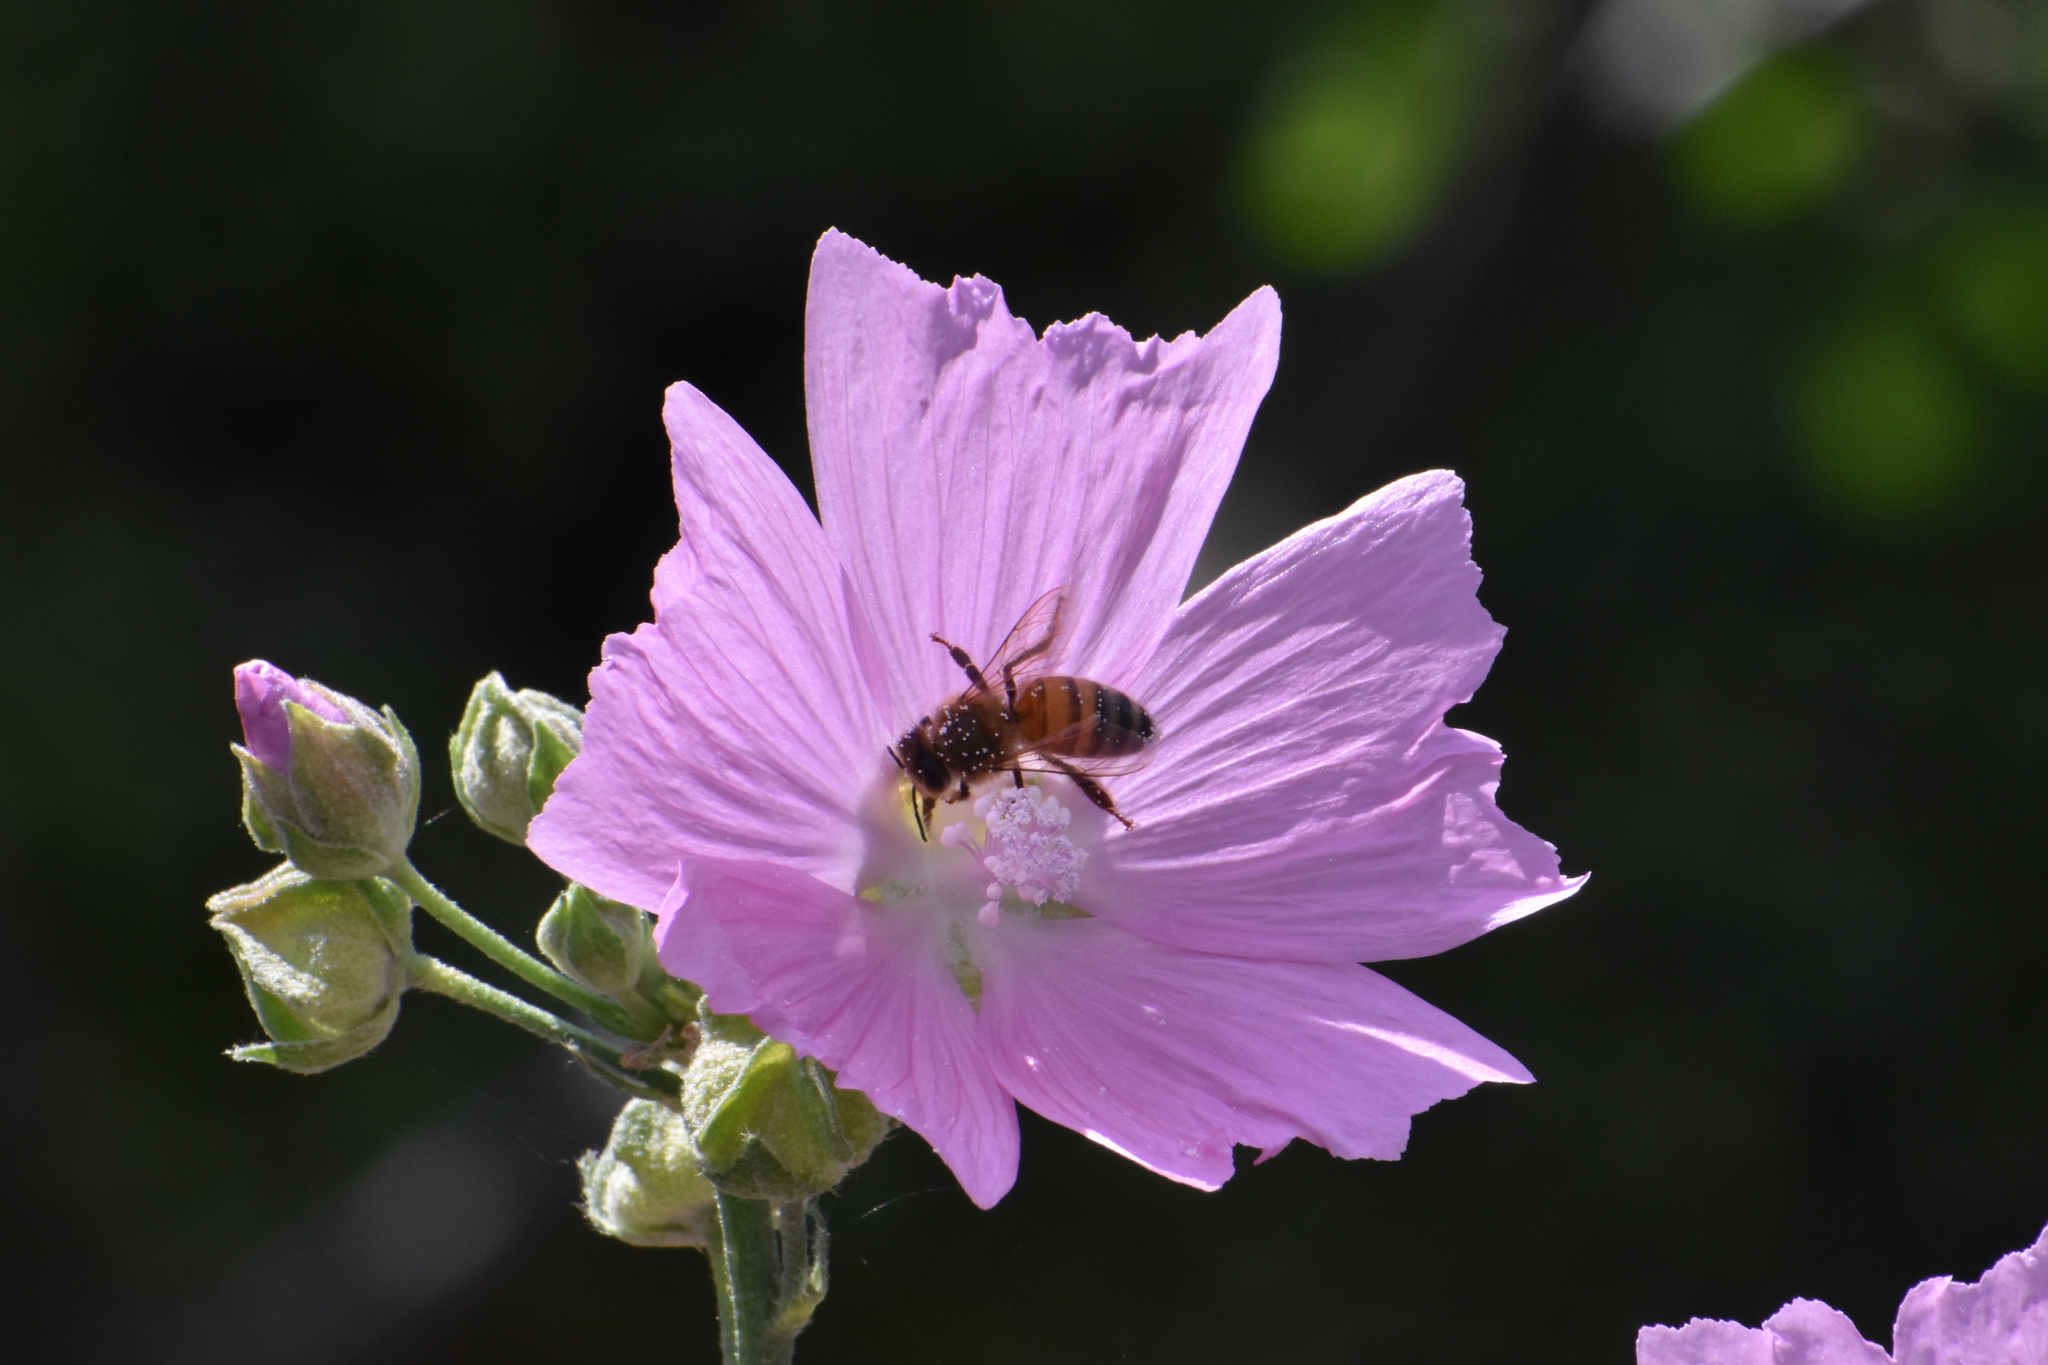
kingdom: Animalia
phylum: Arthropoda
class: Insecta
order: Hymenoptera
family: Apidae
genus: Apis
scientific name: Apis mellifera
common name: Honey bee
